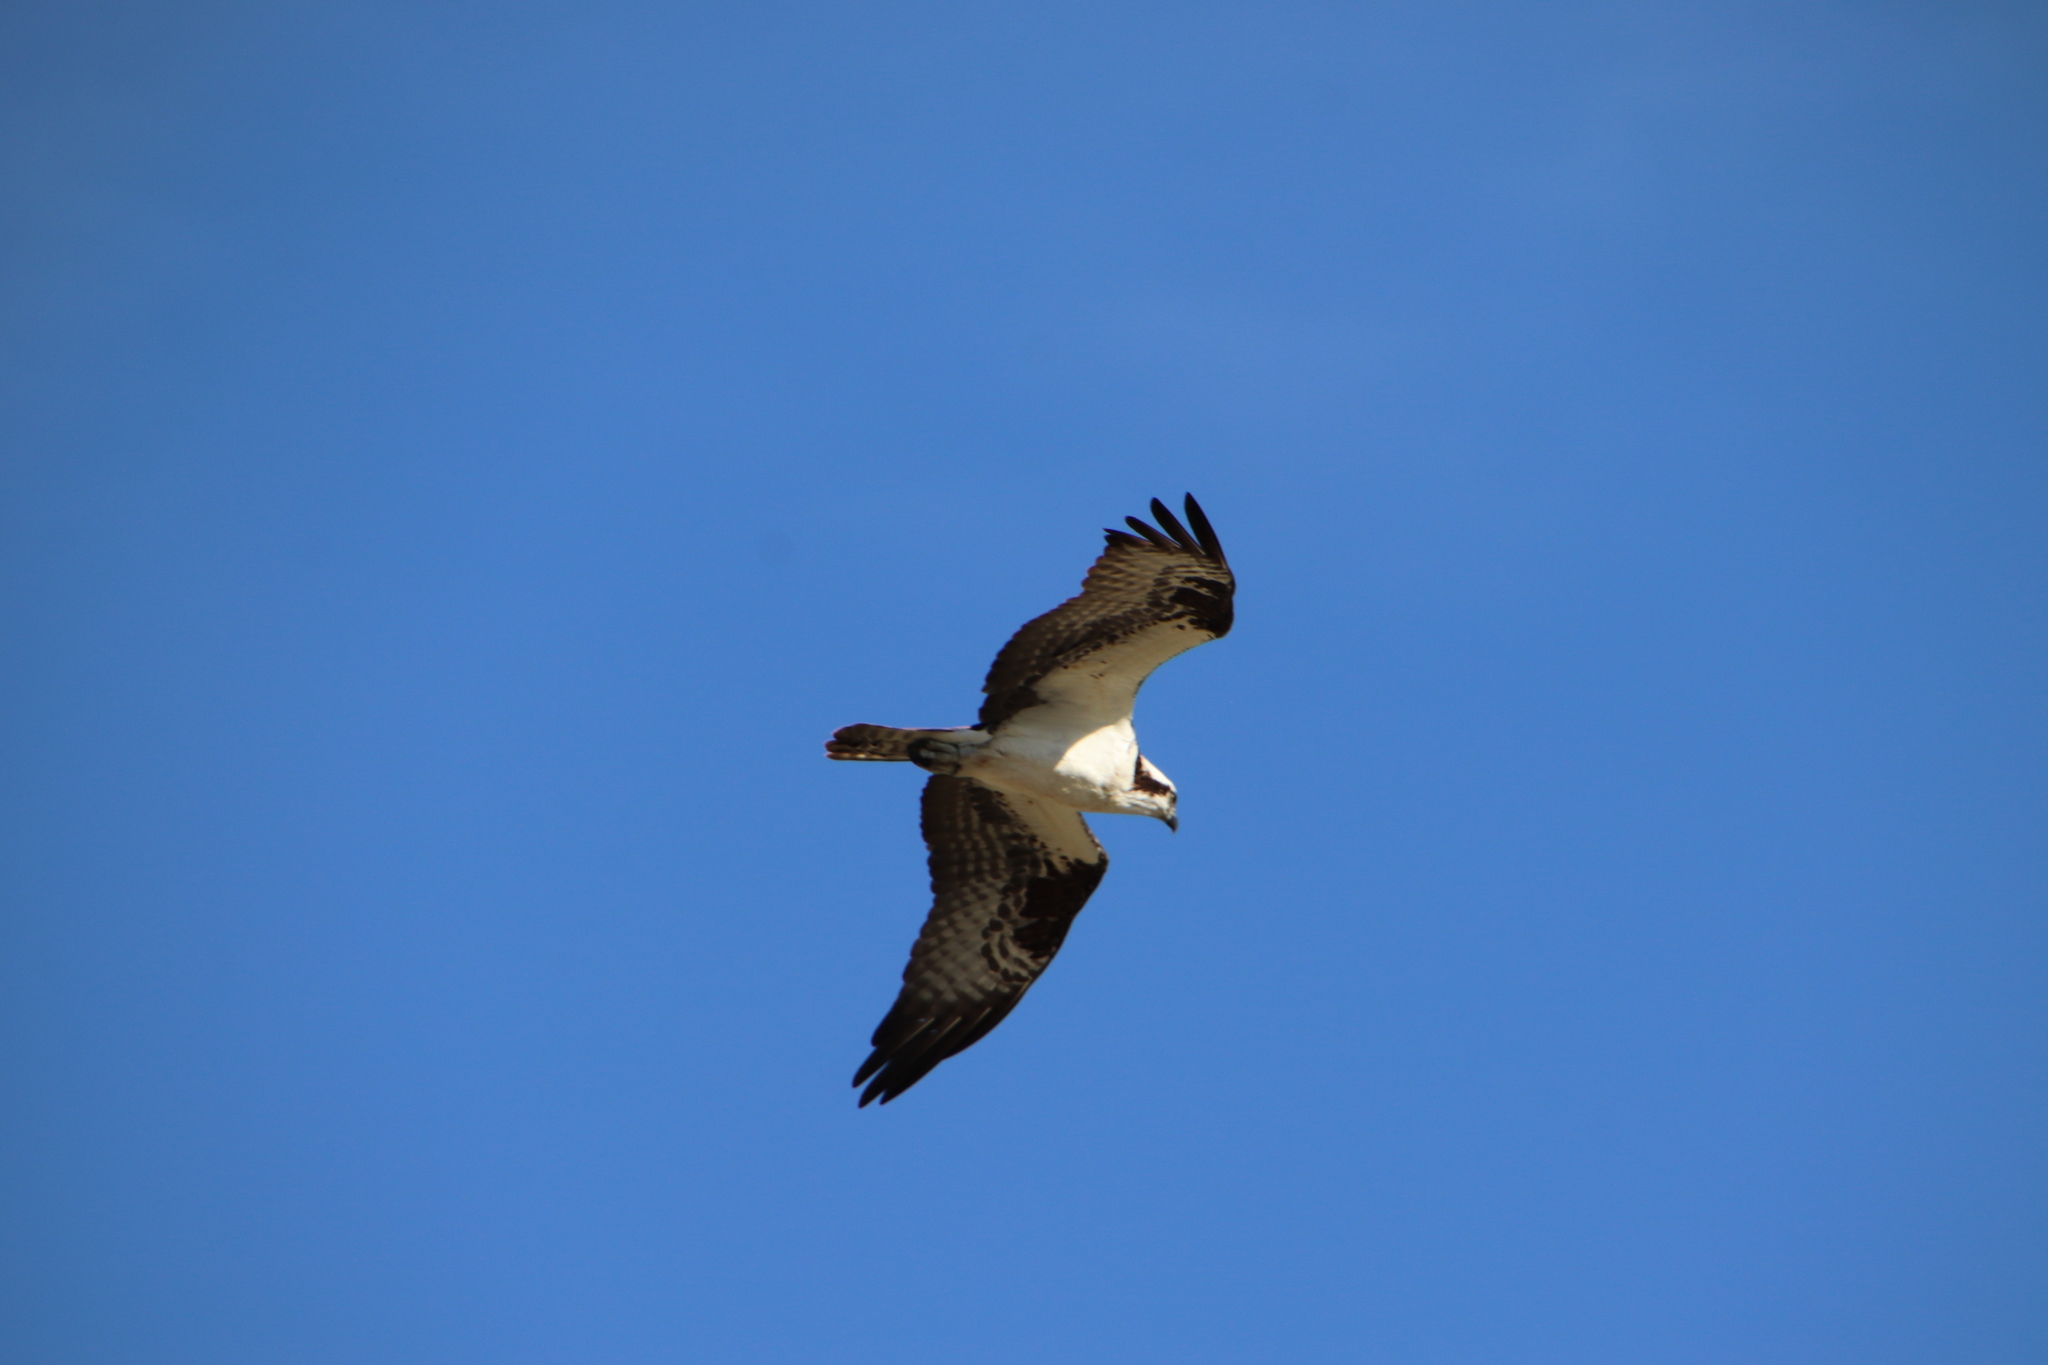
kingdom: Animalia
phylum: Chordata
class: Aves
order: Accipitriformes
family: Pandionidae
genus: Pandion
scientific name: Pandion haliaetus
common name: Osprey
